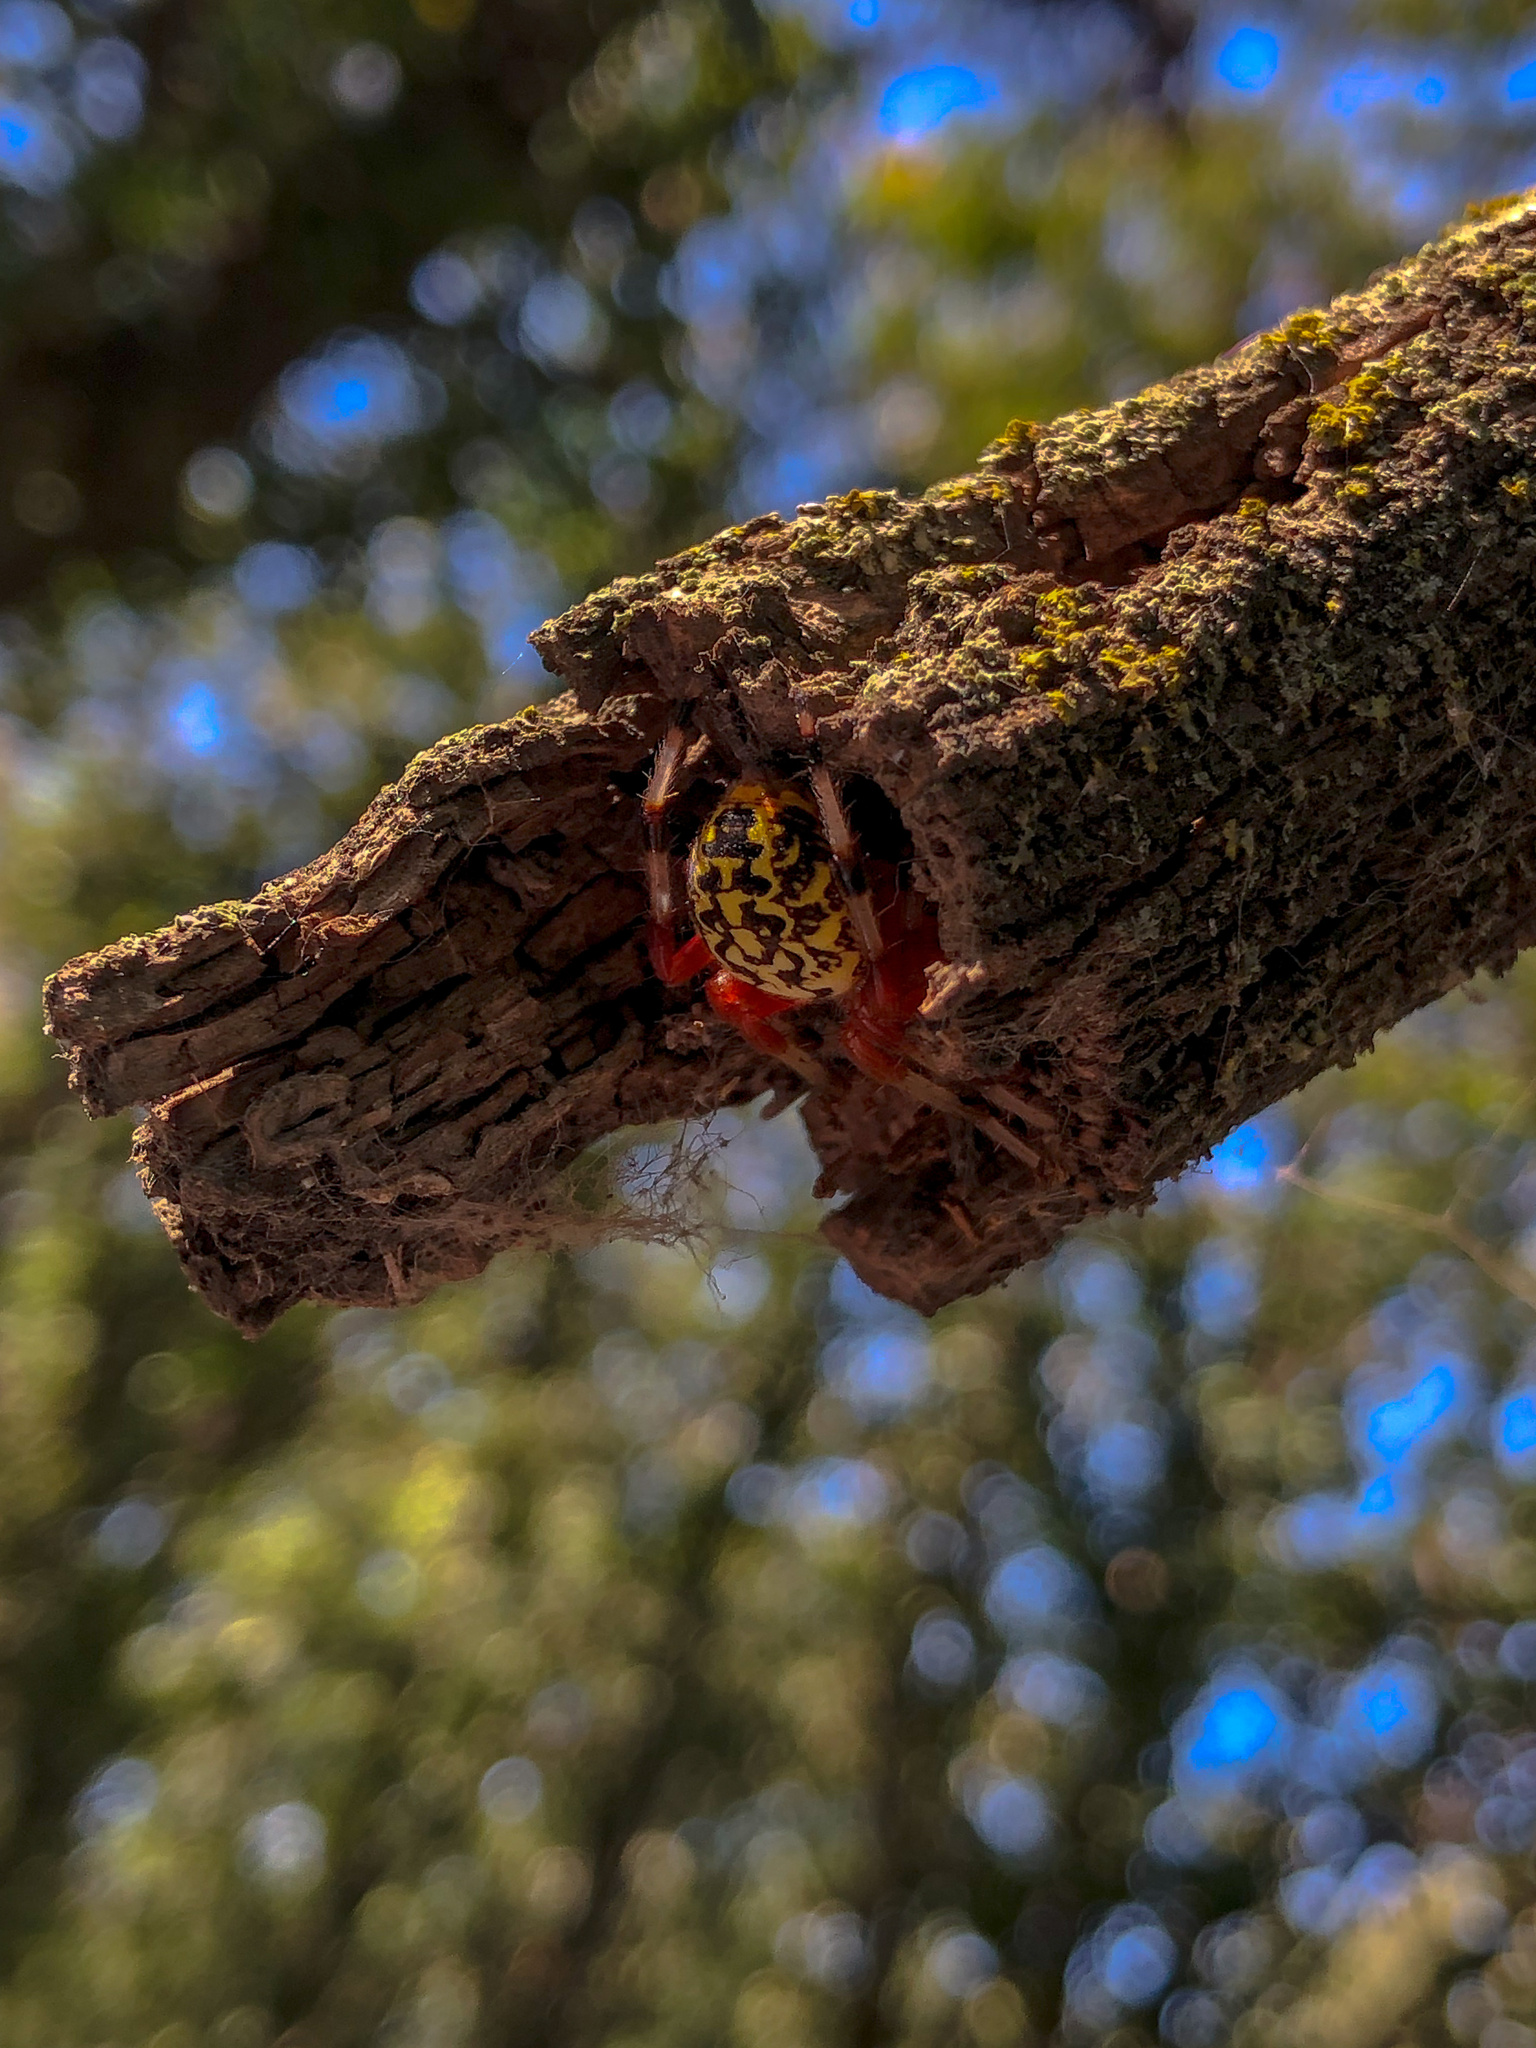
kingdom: Animalia
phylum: Arthropoda
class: Arachnida
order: Araneae
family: Araneidae
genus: Araneus
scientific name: Araneus marmoreus
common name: Marbled orbweaver
